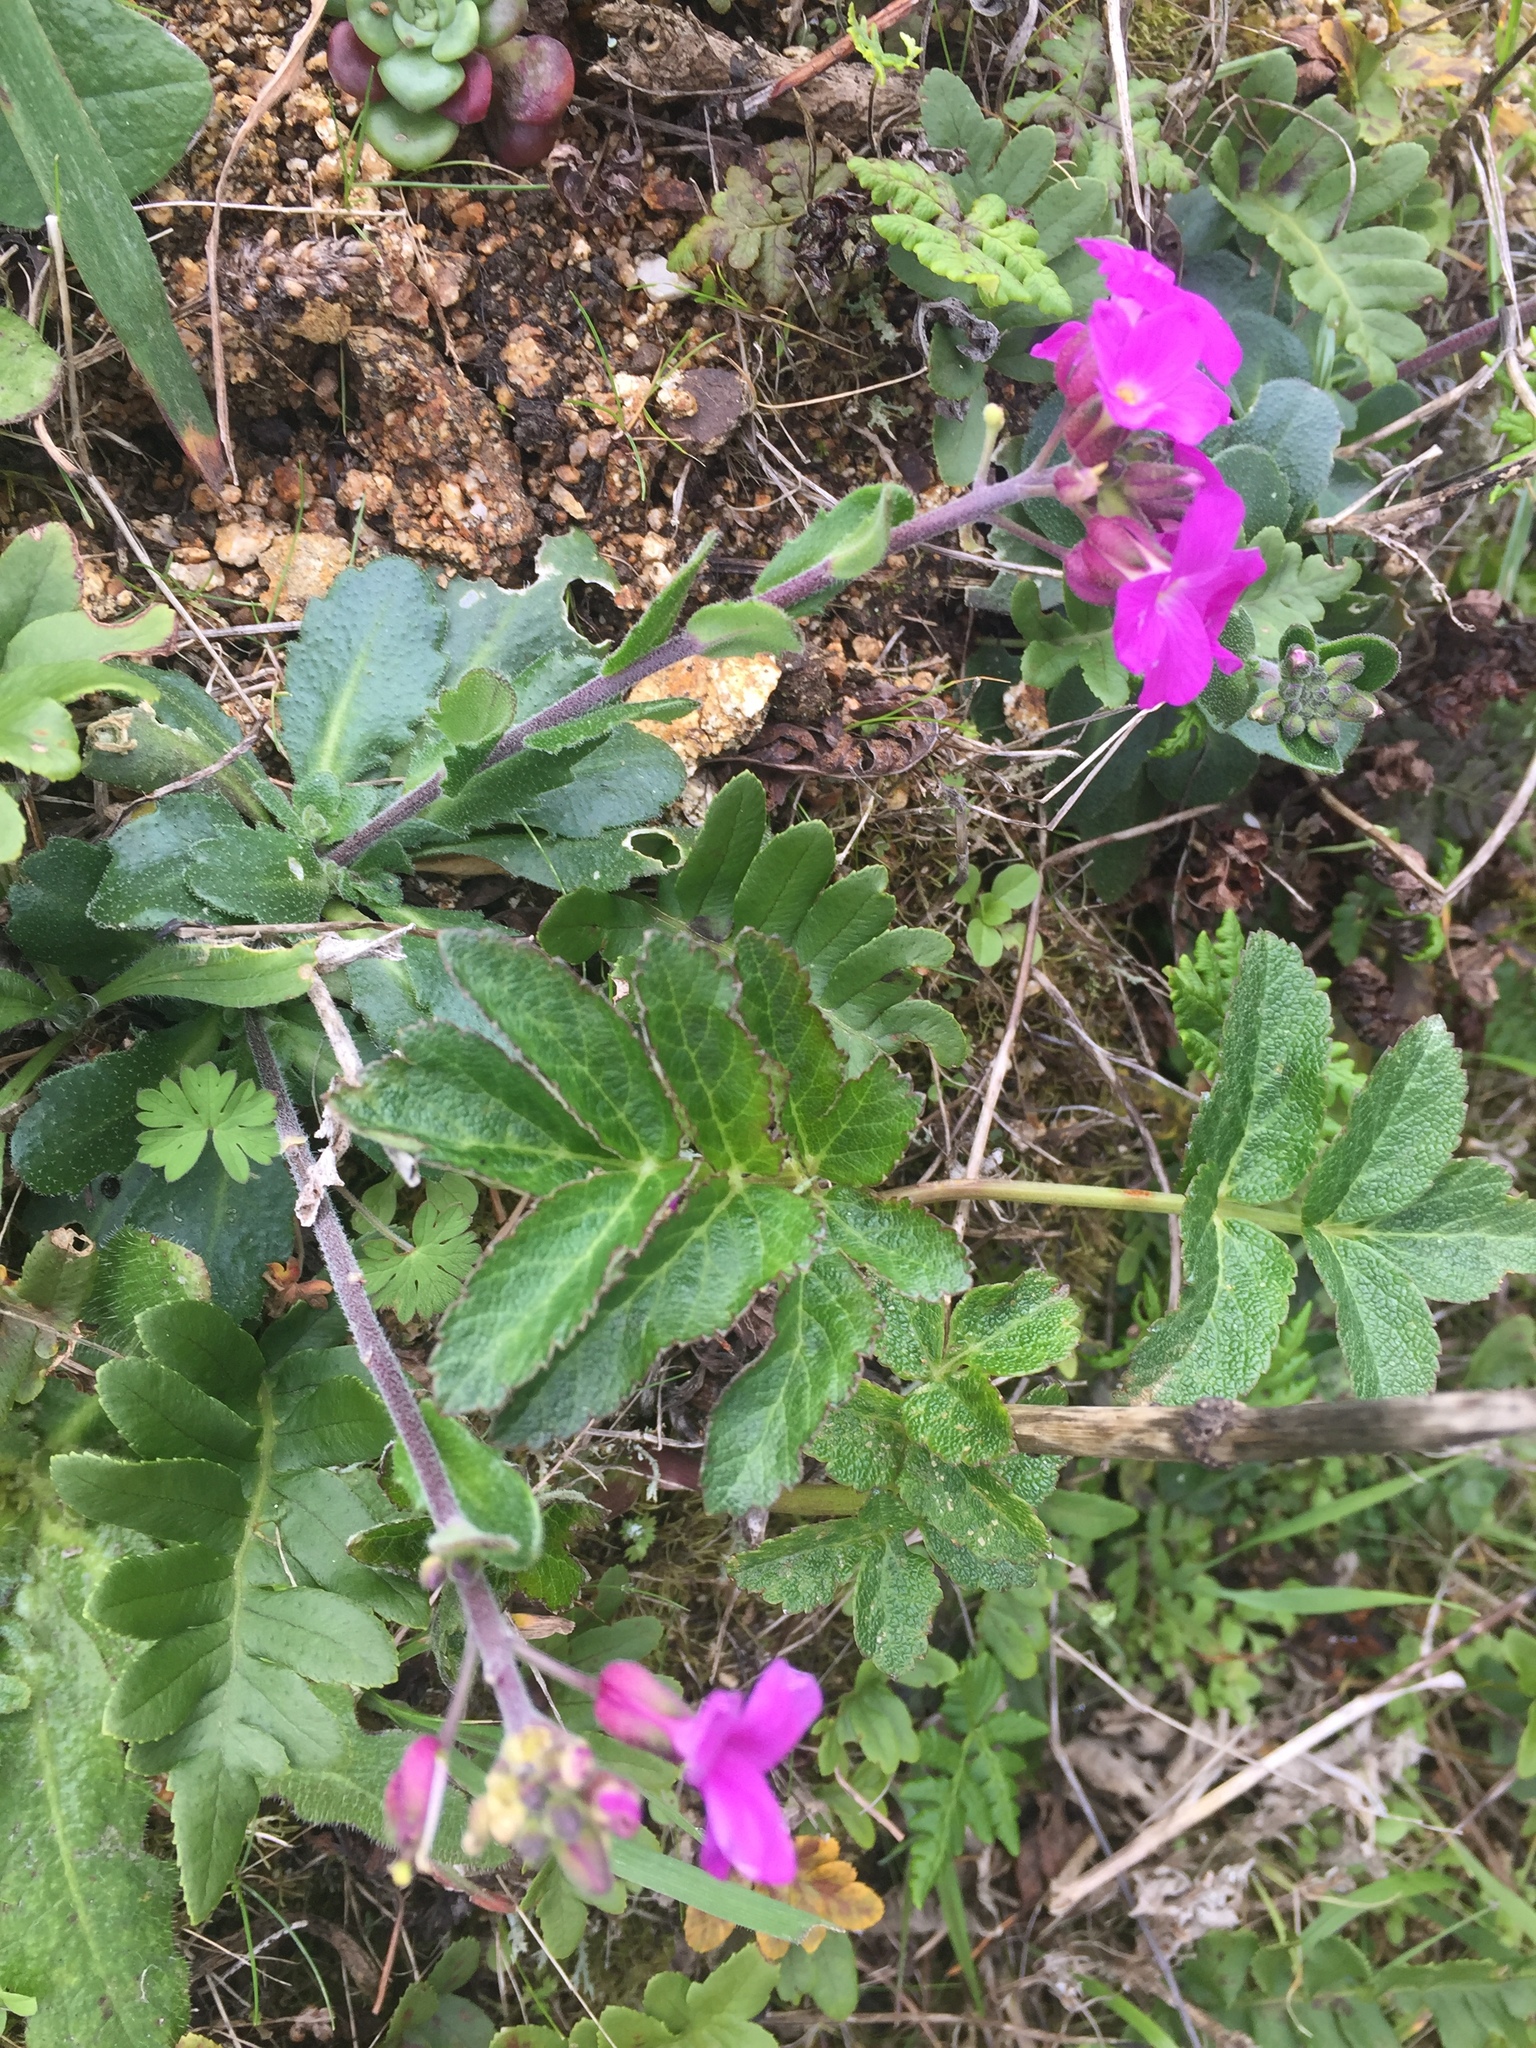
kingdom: Plantae
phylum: Tracheophyta
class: Magnoliopsida
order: Brassicales
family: Brassicaceae
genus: Arabis
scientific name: Arabis blepharophylla
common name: Rose rockcress
